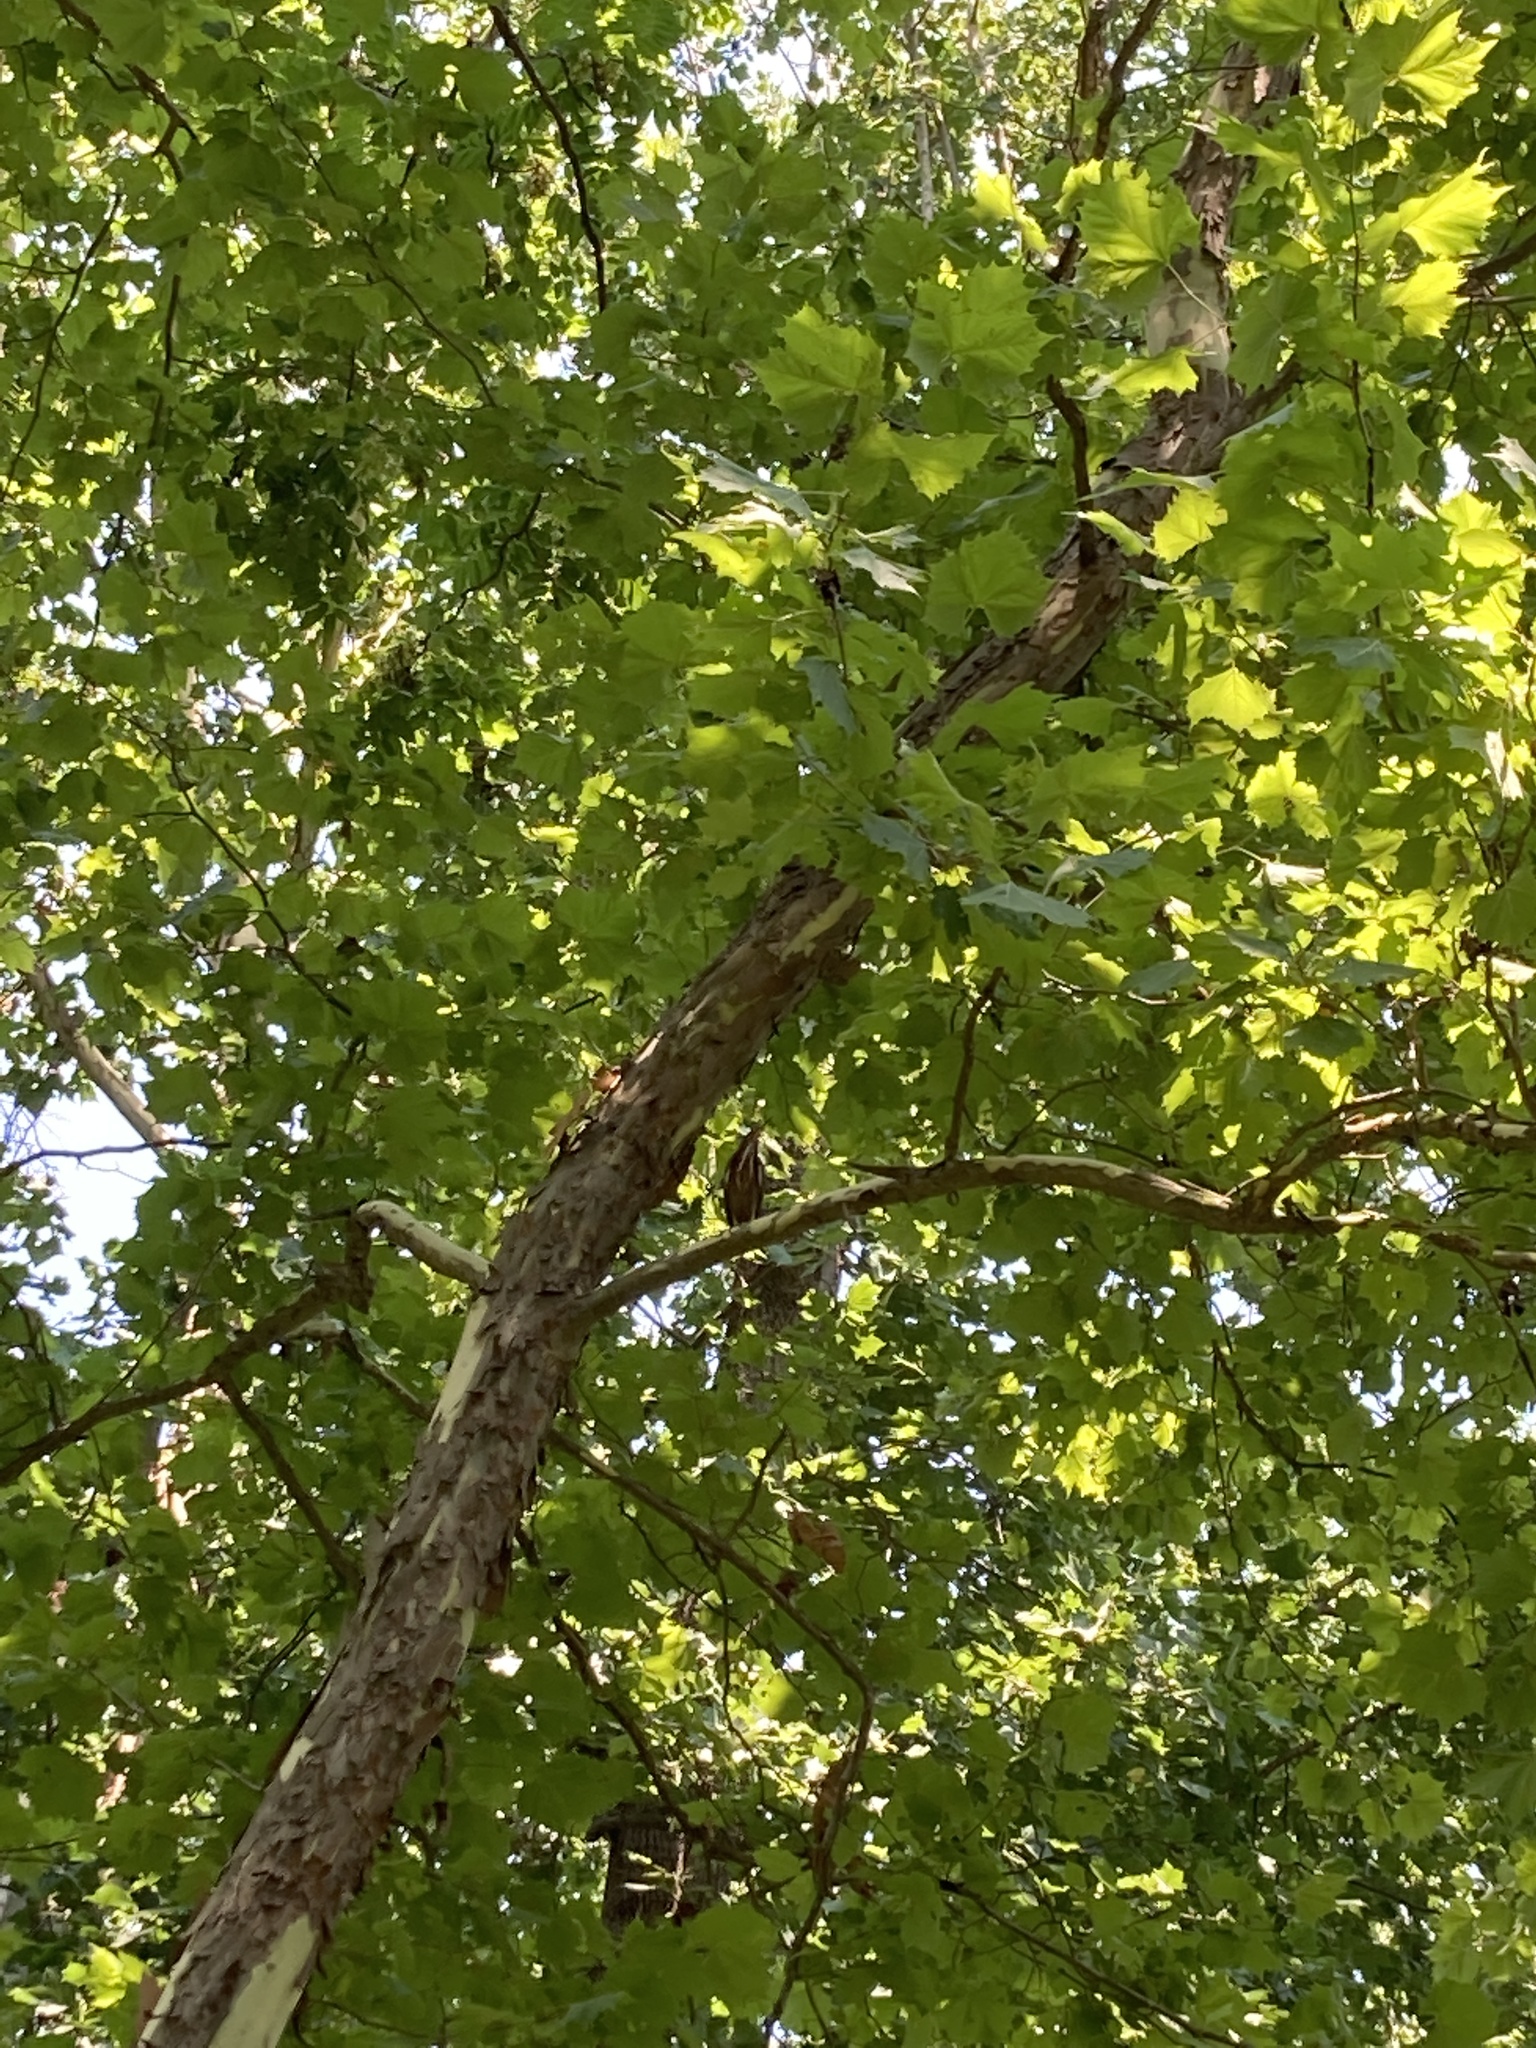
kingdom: Animalia
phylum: Chordata
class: Aves
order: Pelecaniformes
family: Ardeidae
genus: Butorides
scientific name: Butorides virescens
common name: Green heron
